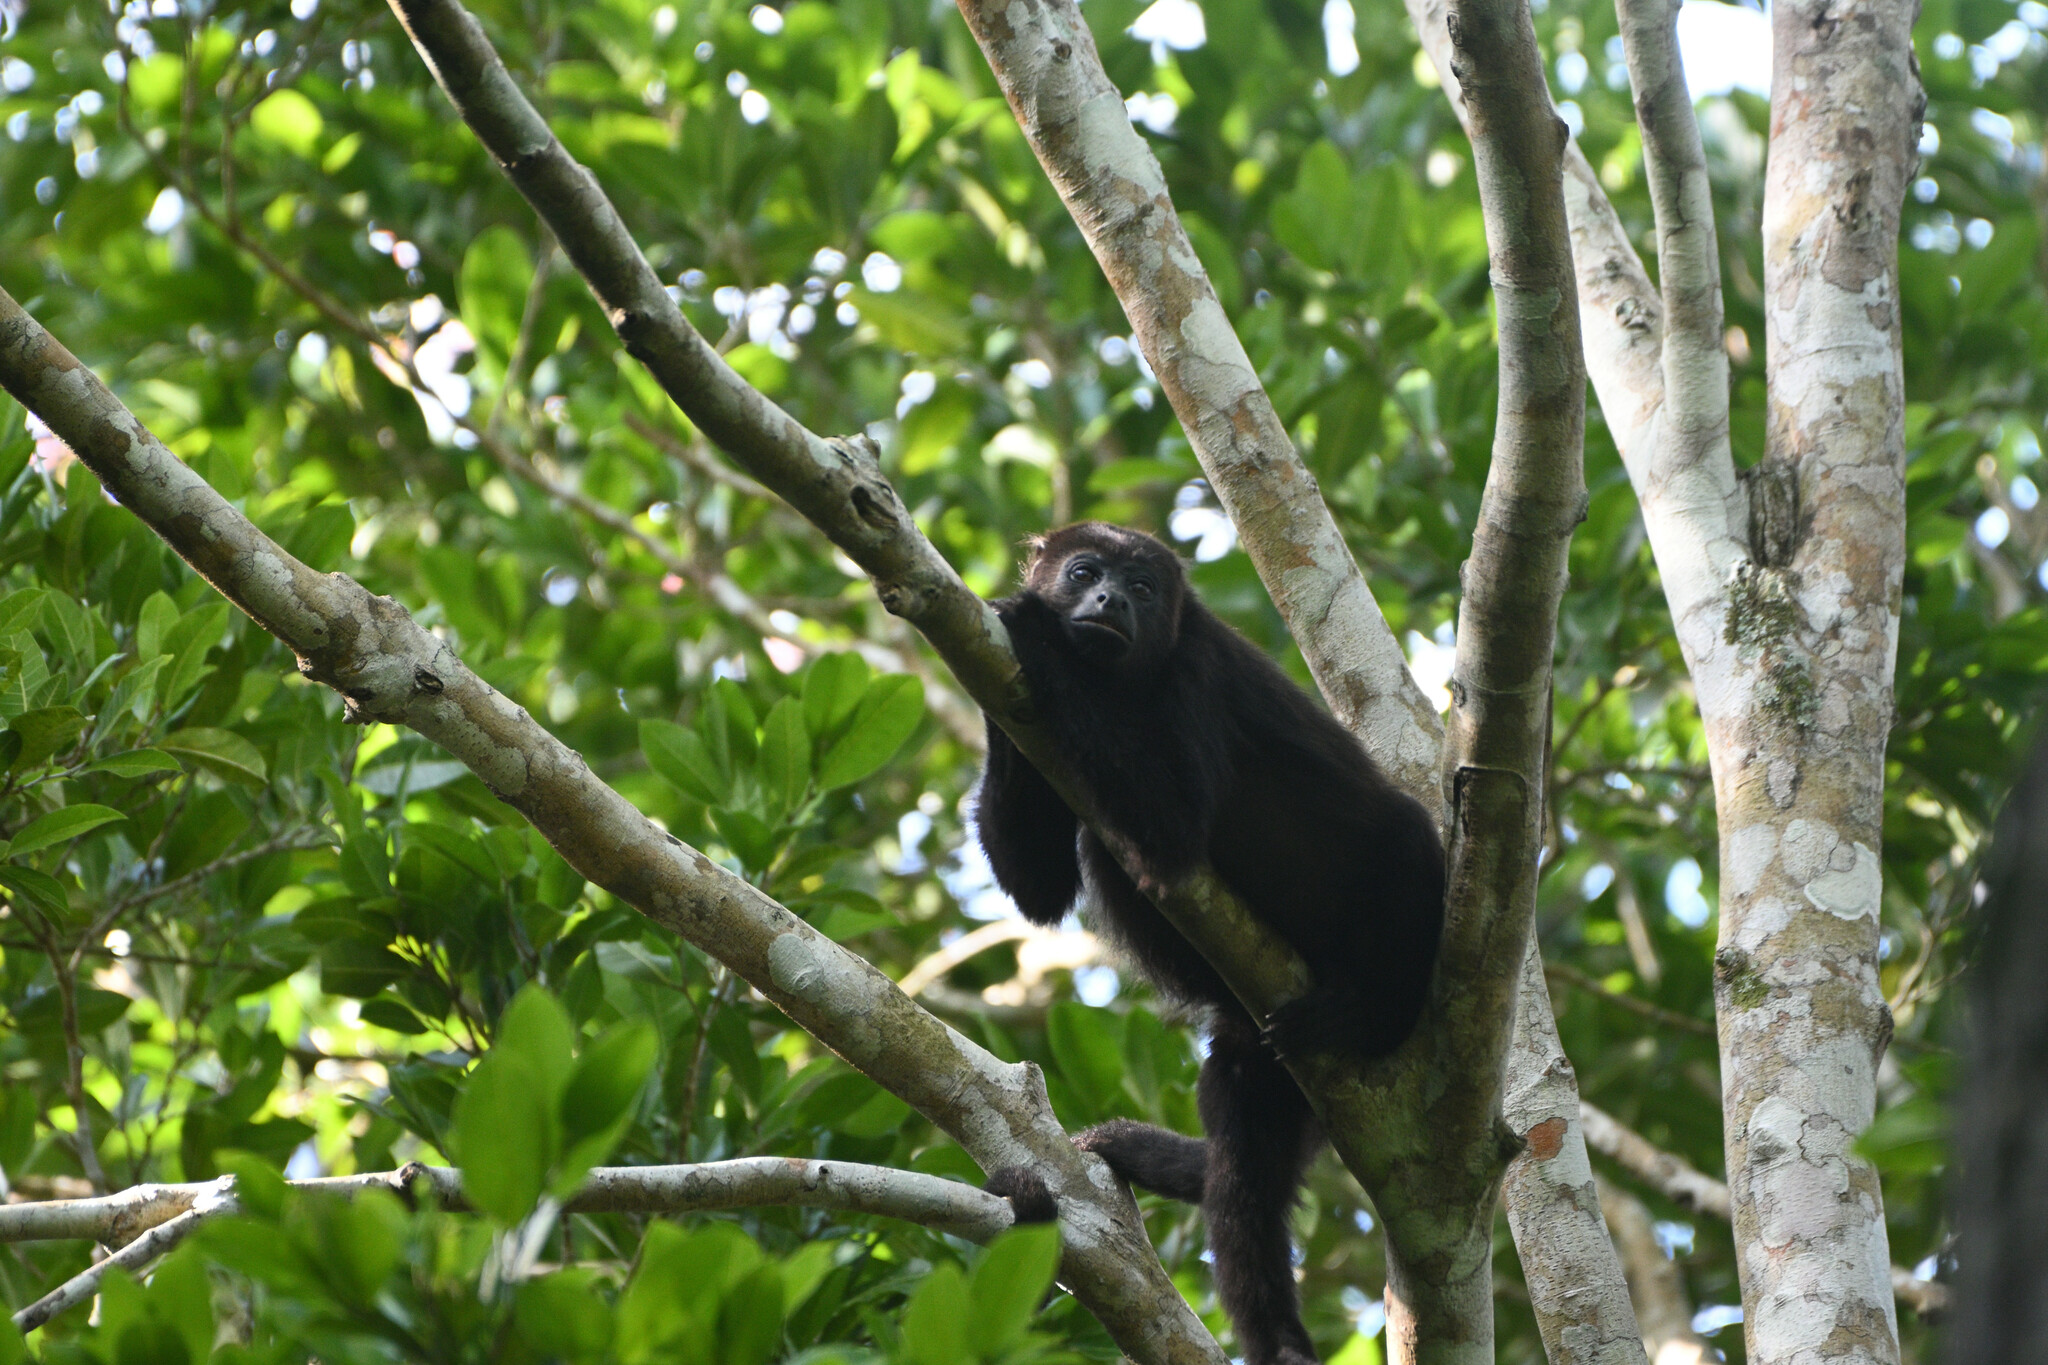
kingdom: Animalia
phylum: Chordata
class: Mammalia
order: Primates
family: Atelidae
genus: Alouatta
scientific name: Alouatta pigra
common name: Guatemalan black howler
